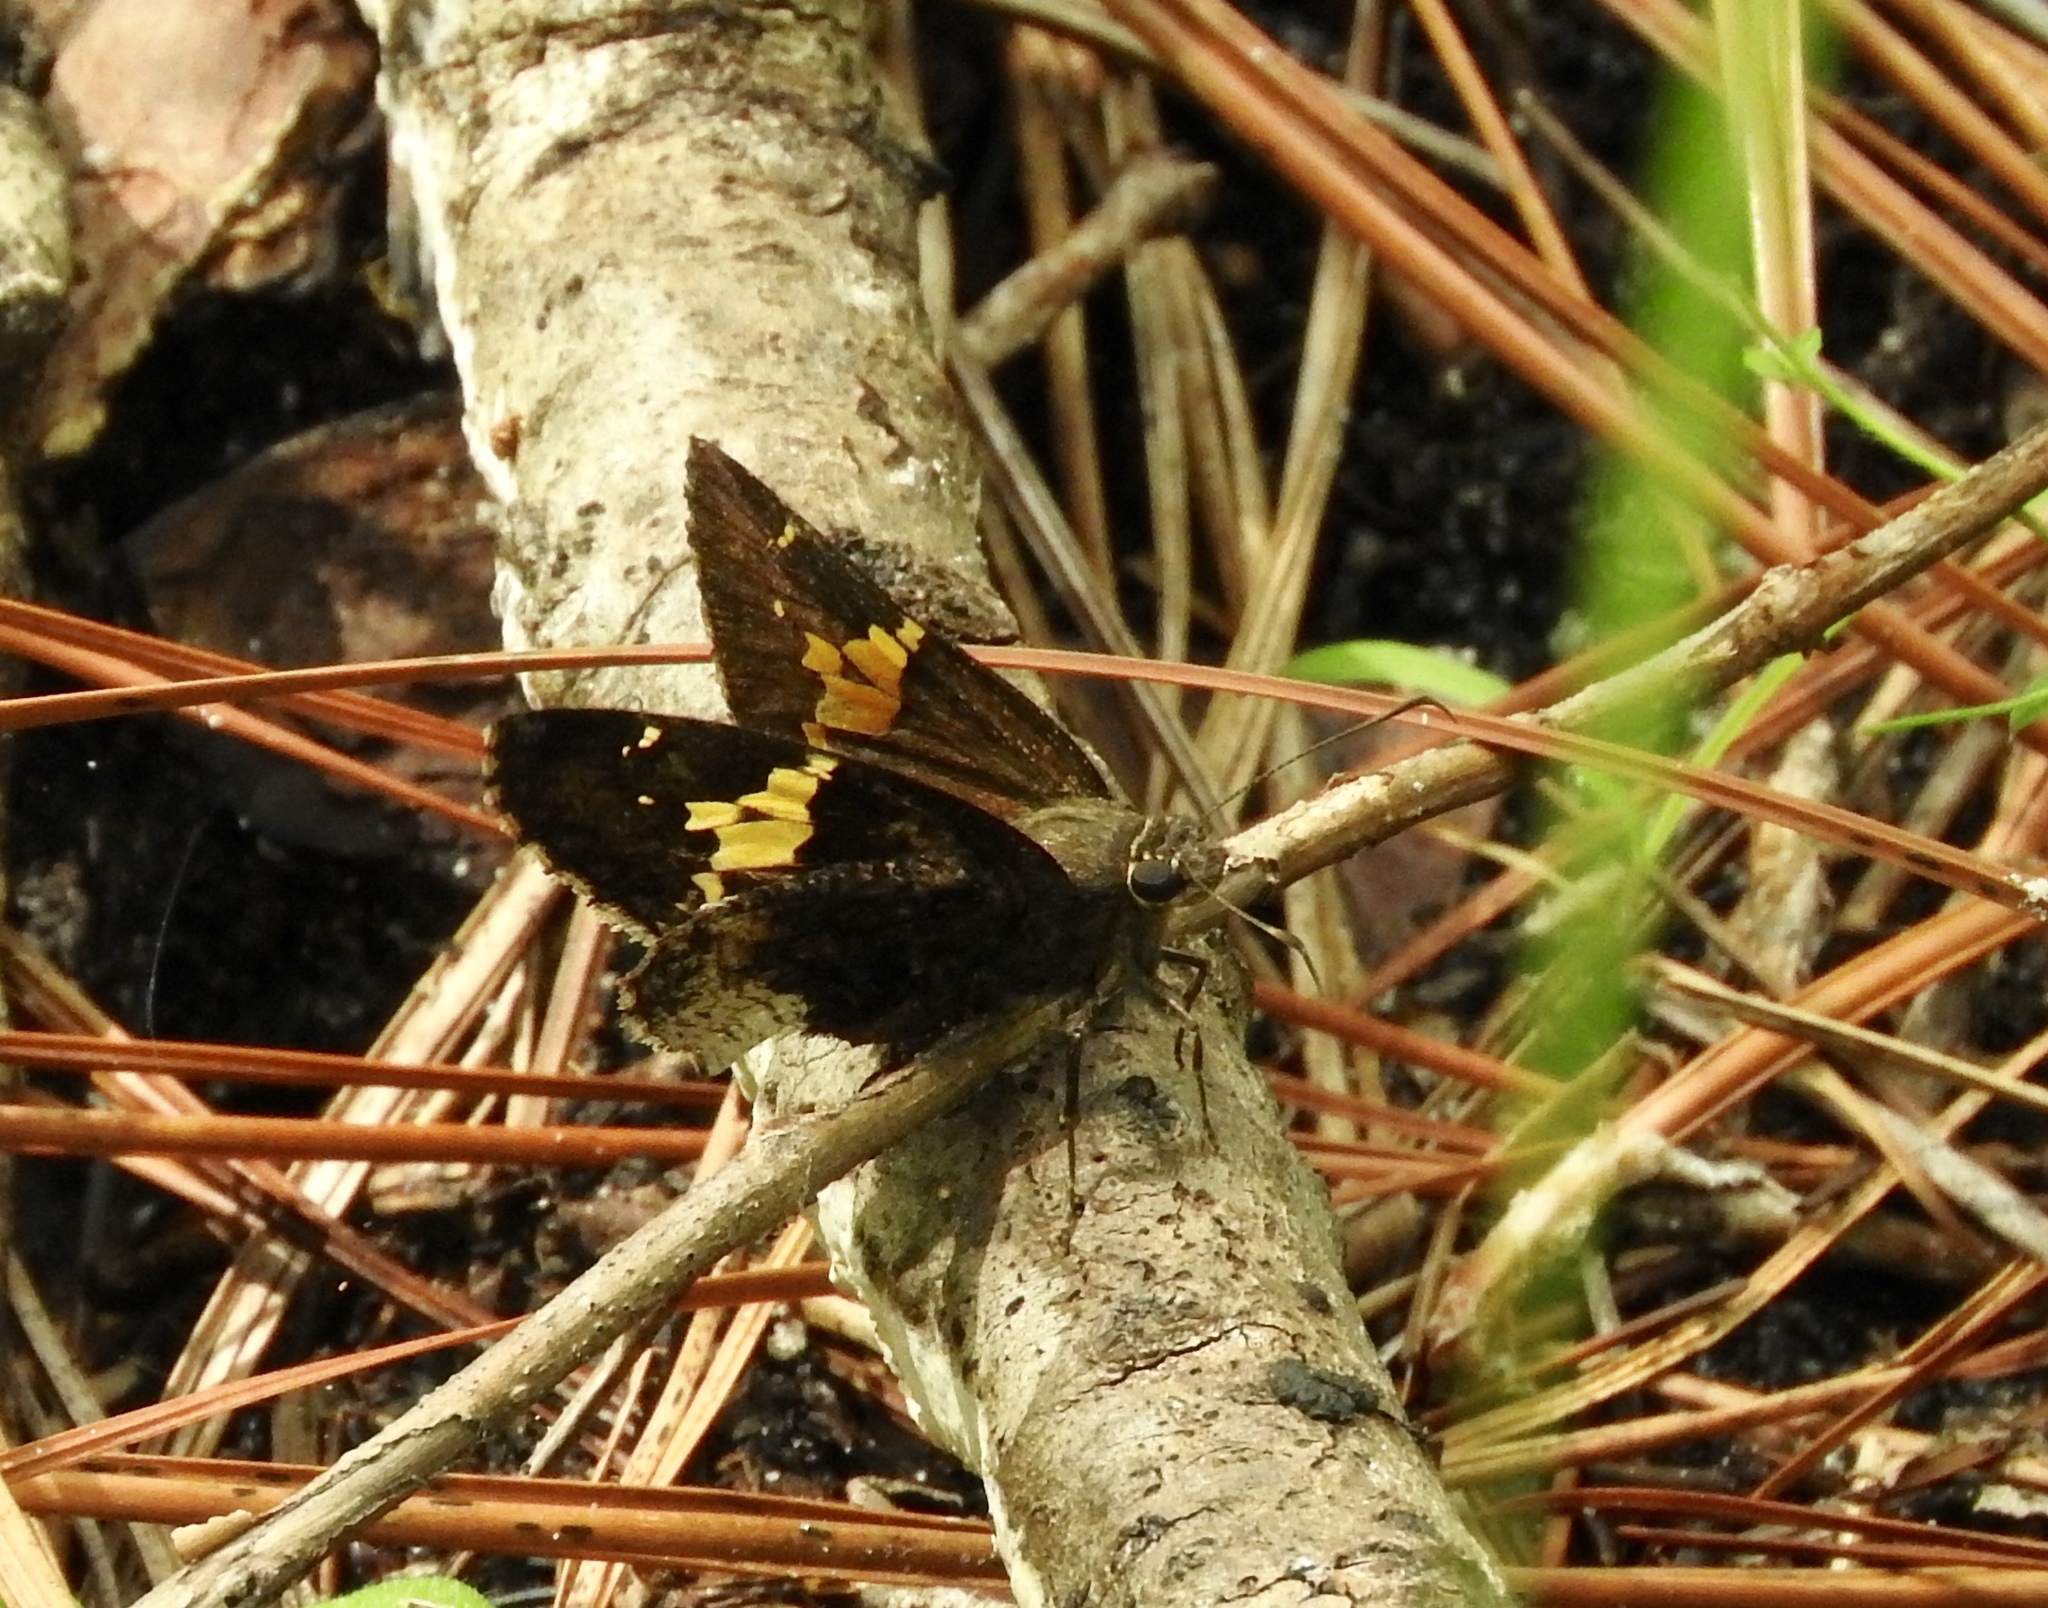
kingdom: Animalia
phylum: Arthropoda
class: Insecta
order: Lepidoptera
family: Hesperiidae
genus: Epargyreus
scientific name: Epargyreus clarus
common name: Silver-spotted skipper
